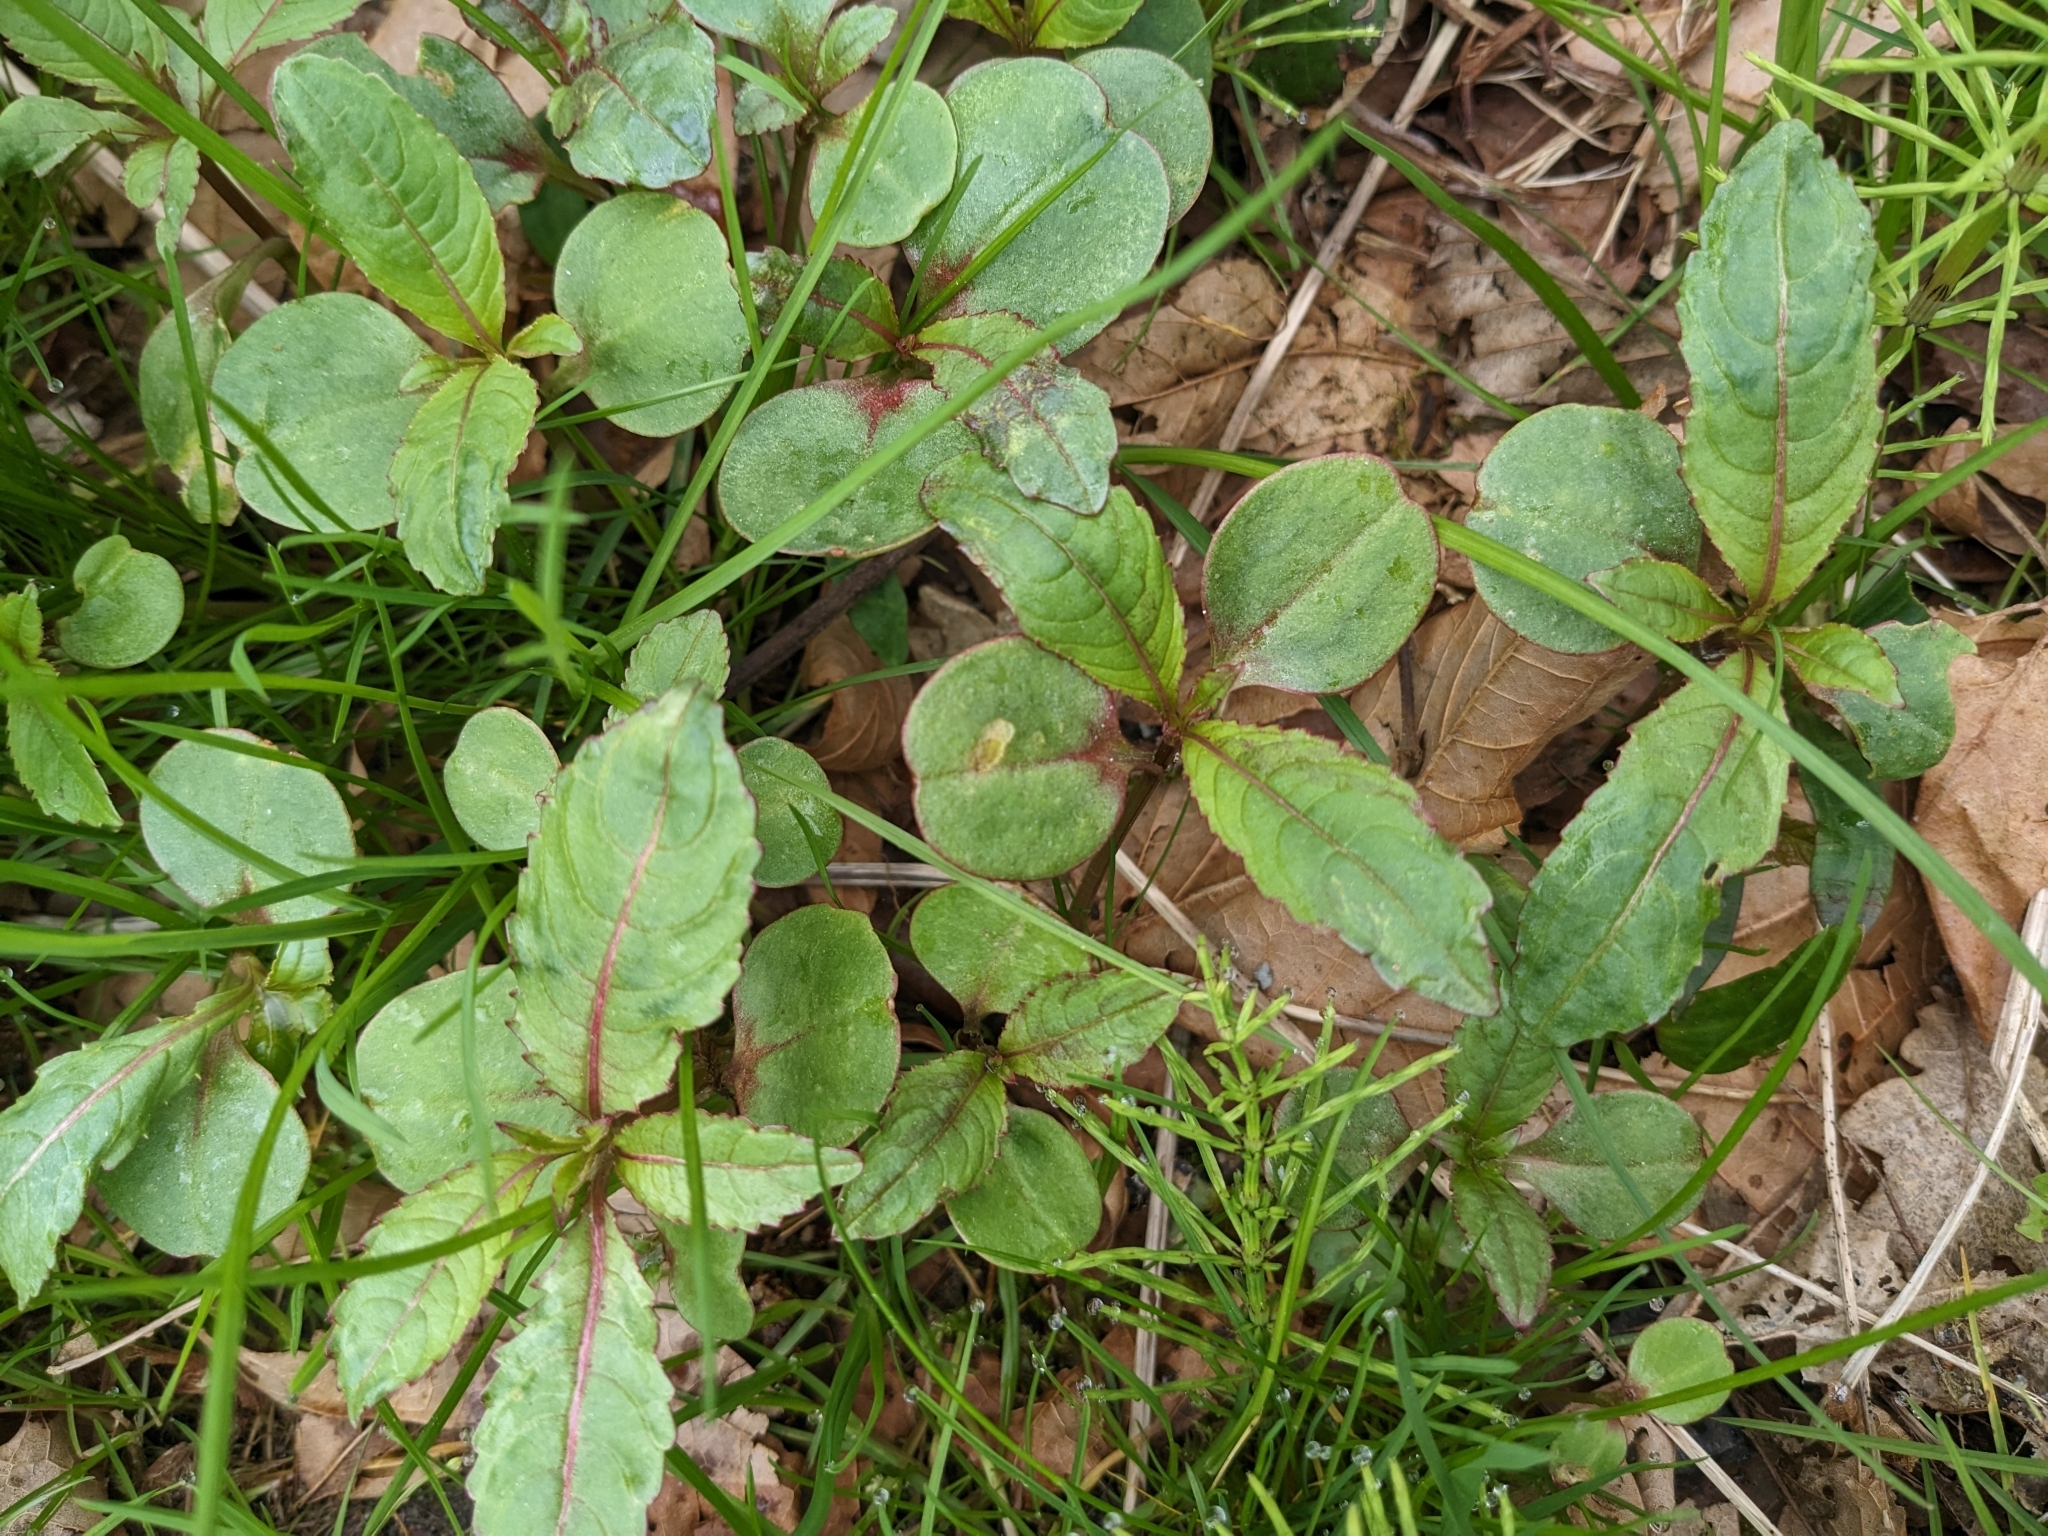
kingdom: Plantae
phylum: Tracheophyta
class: Magnoliopsida
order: Ericales
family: Balsaminaceae
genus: Impatiens
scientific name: Impatiens glandulifera
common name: Himalayan balsam
